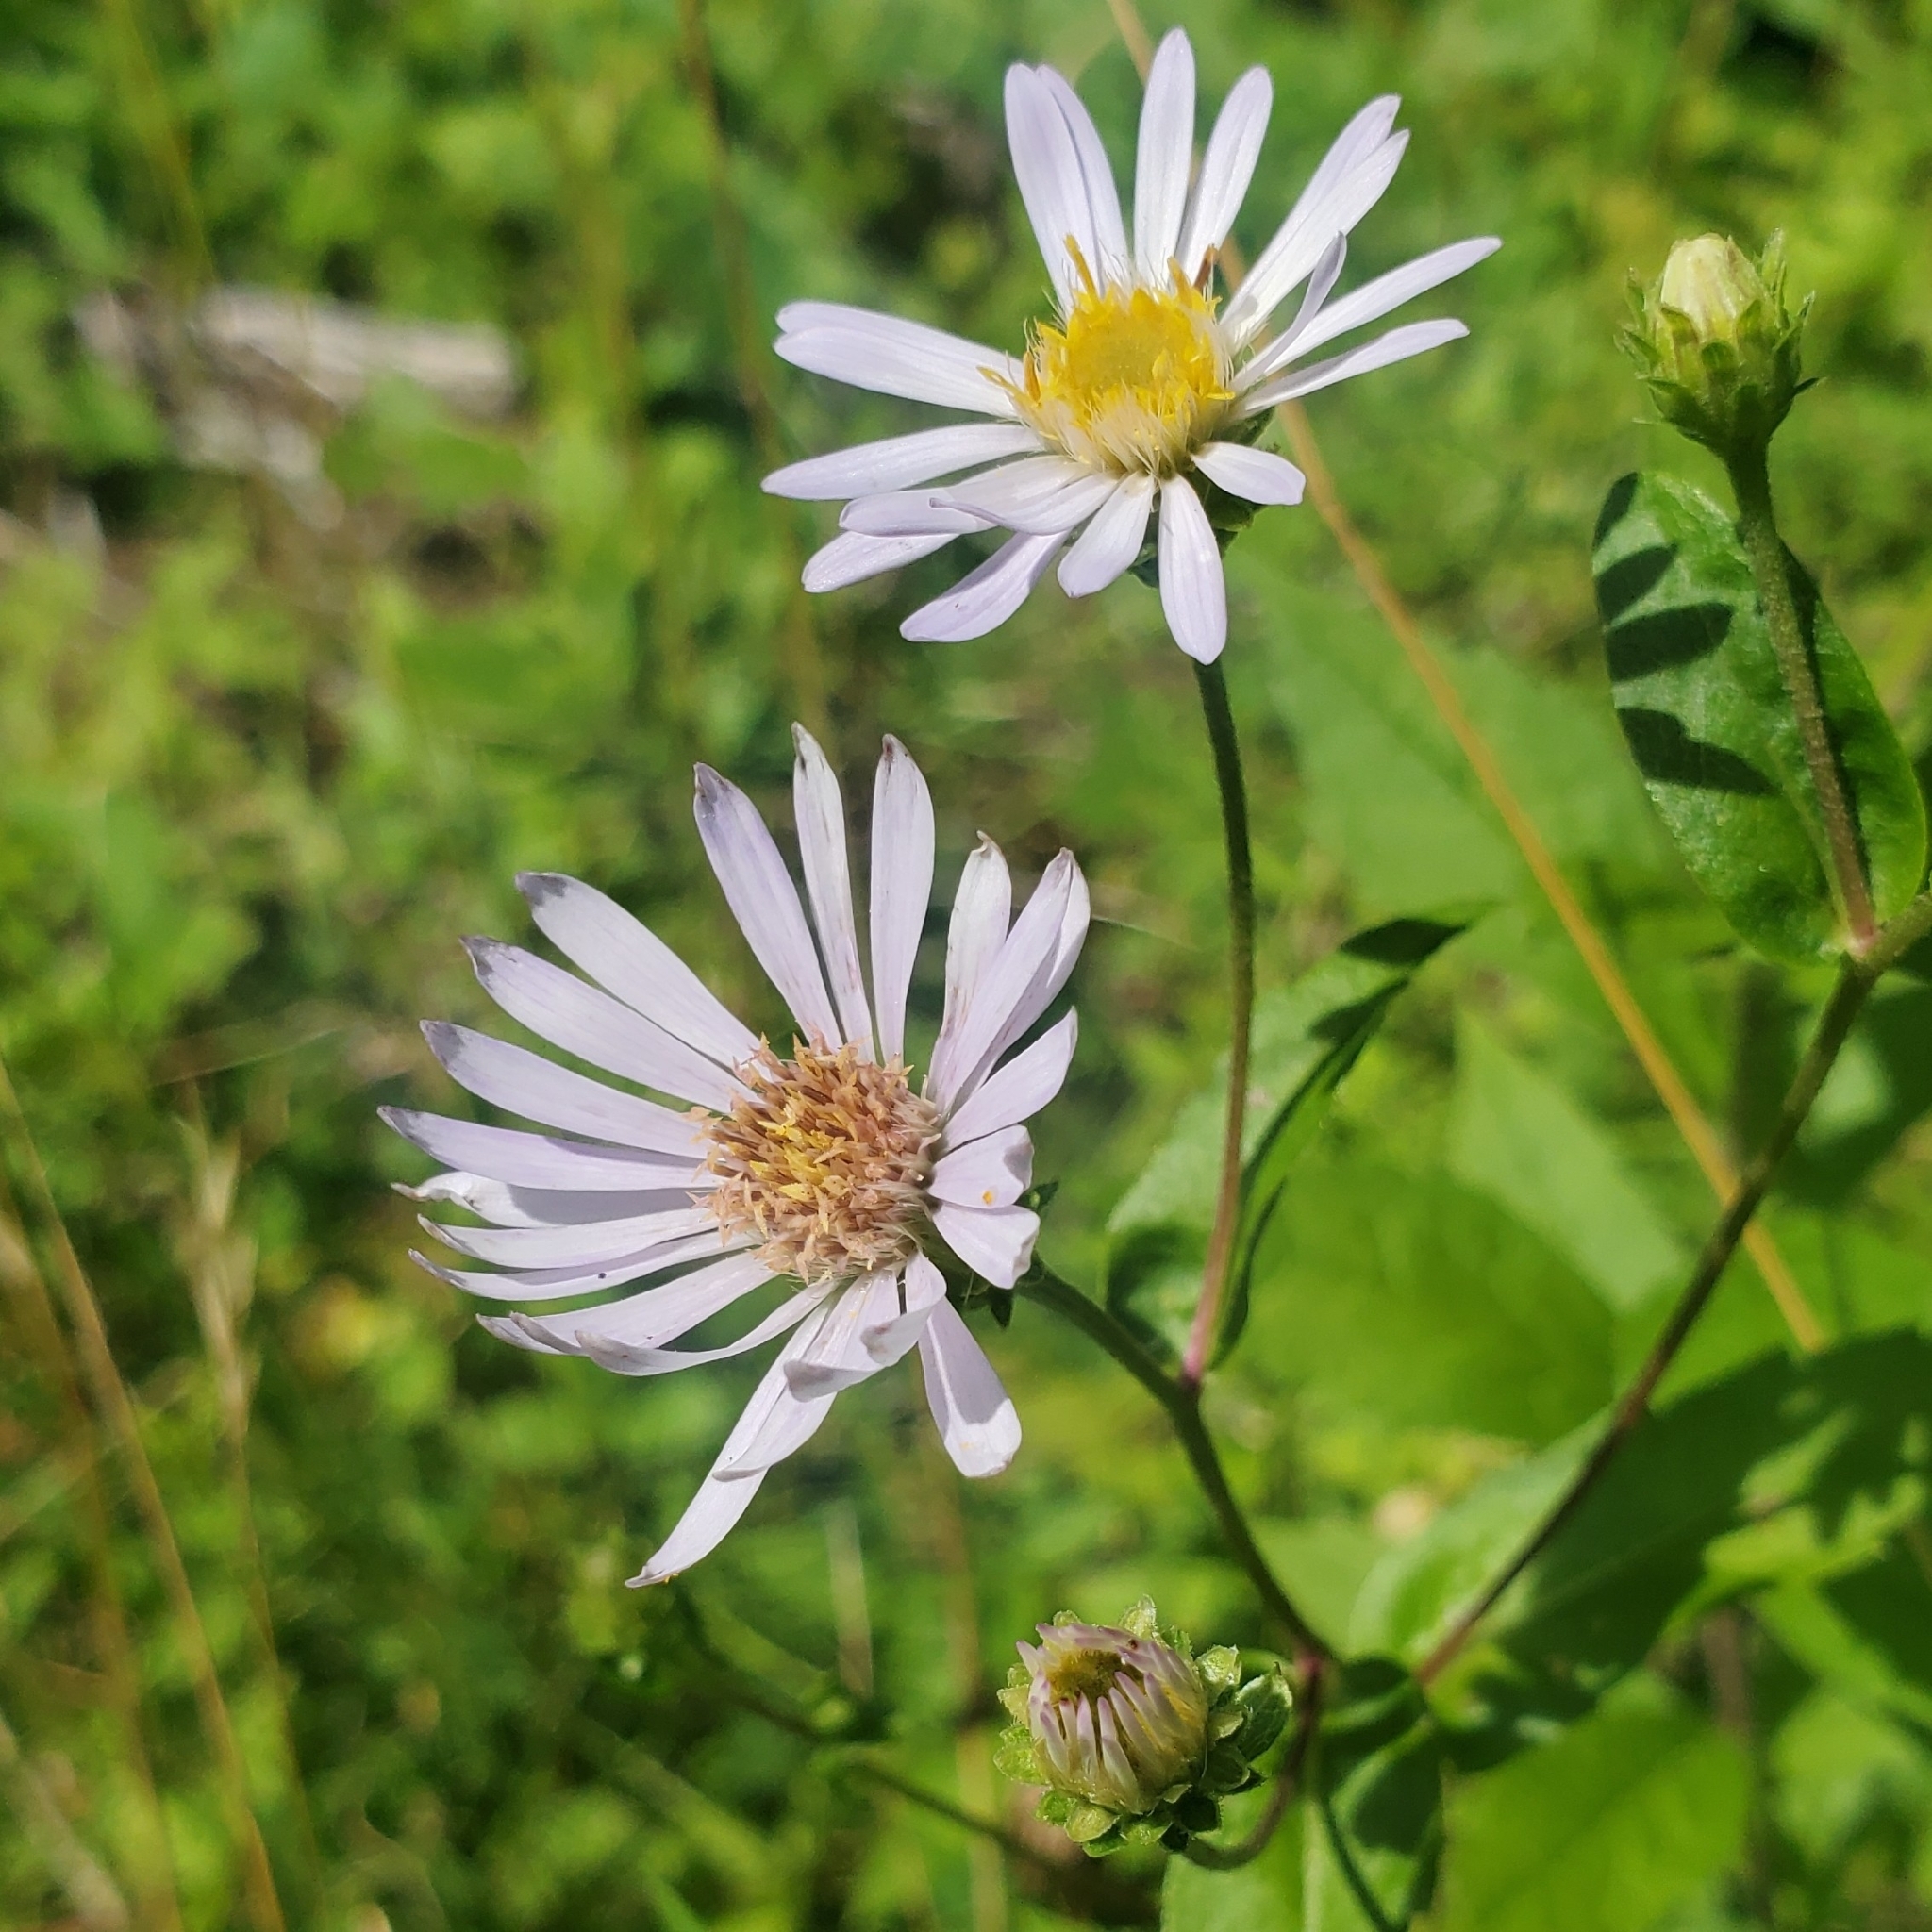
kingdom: Plantae
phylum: Tracheophyta
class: Magnoliopsida
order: Asterales
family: Asteraceae
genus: Eurybia
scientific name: Eurybia radula
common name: Low rough aster
